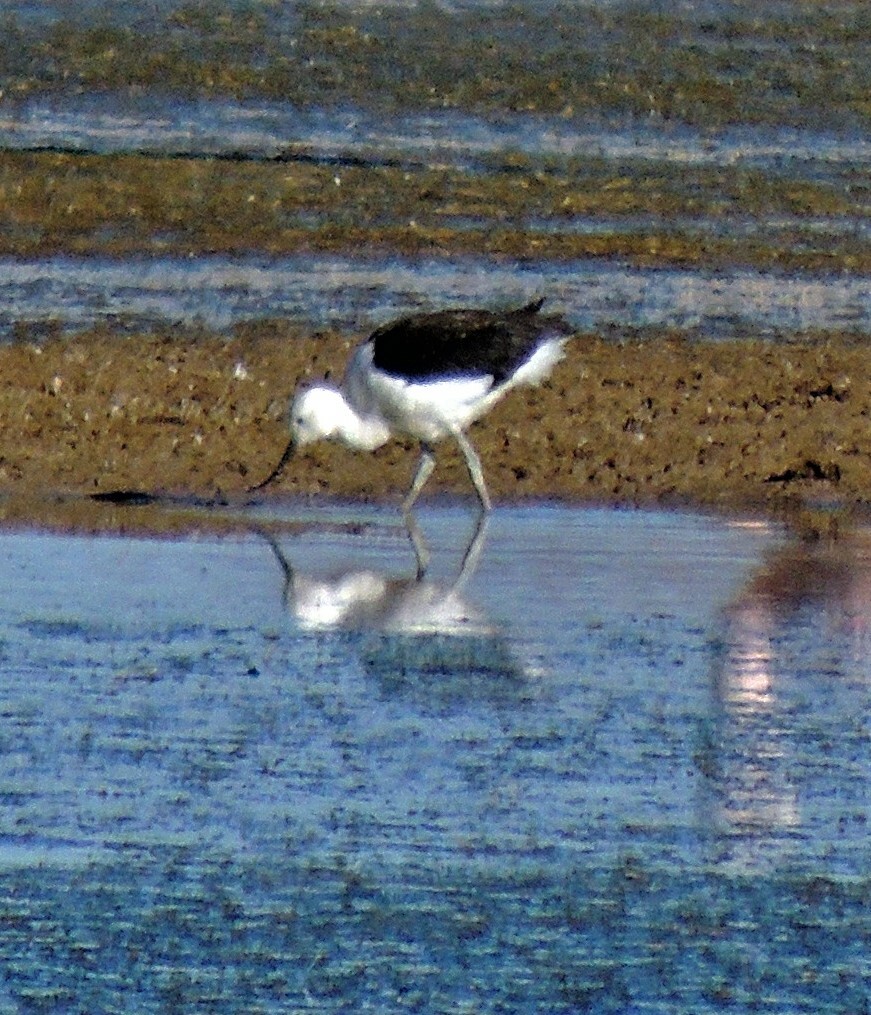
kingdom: Animalia
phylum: Chordata
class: Aves
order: Charadriiformes
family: Recurvirostridae
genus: Recurvirostra
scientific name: Recurvirostra andina
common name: Andean avocet
